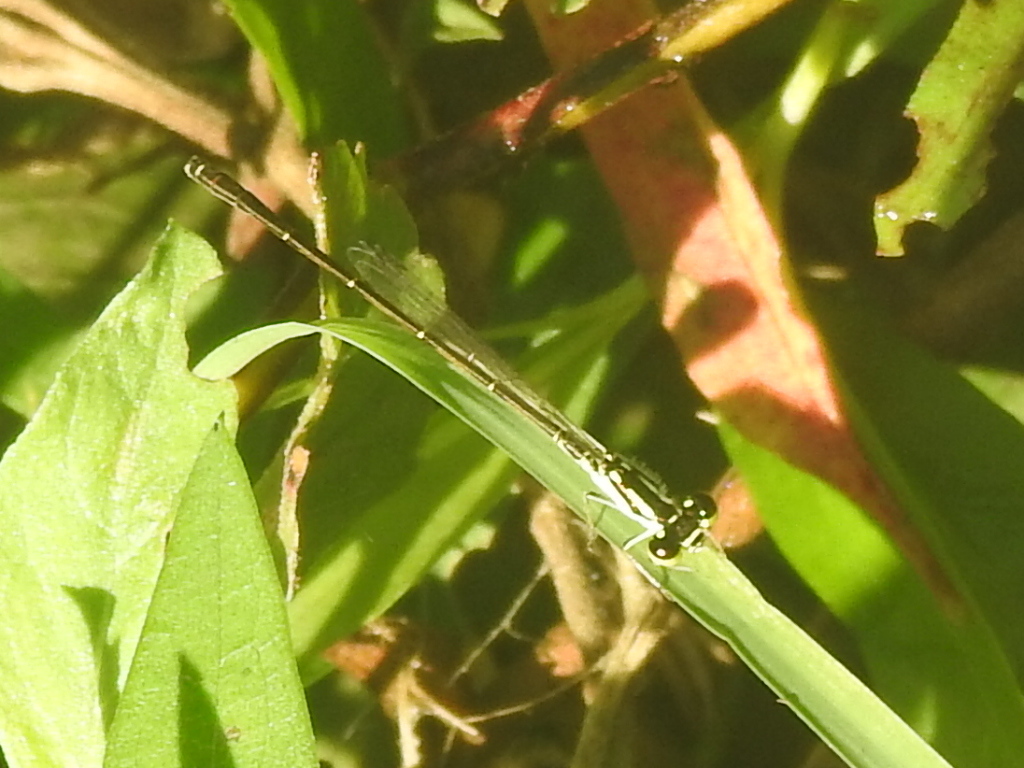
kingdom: Animalia
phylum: Arthropoda
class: Insecta
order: Odonata
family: Coenagrionidae
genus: Ischnura
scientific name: Ischnura posita
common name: Fragile forktail
